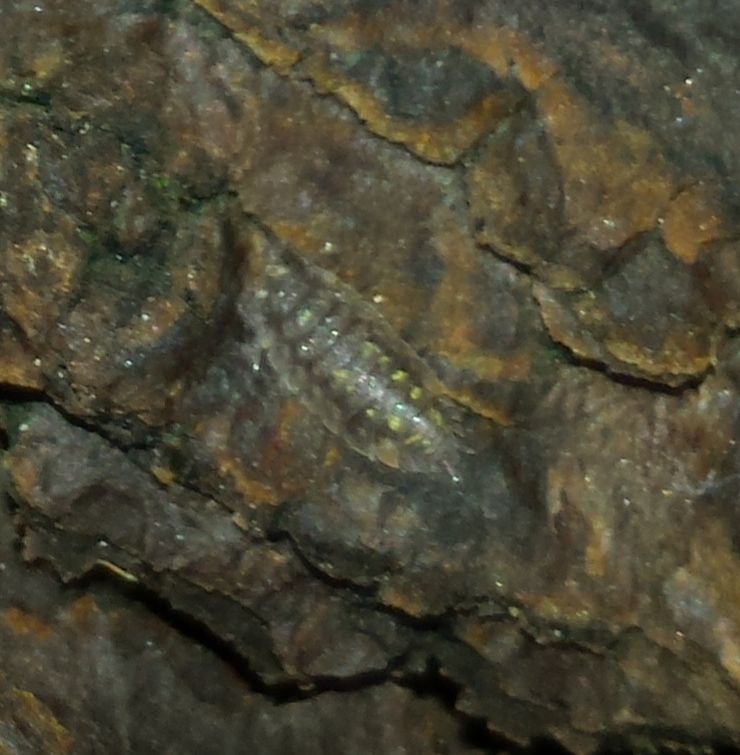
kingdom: Animalia
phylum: Arthropoda
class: Malacostraca
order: Isopoda
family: Oniscidae
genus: Oniscus
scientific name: Oniscus asellus
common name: Common shiny woodlouse
